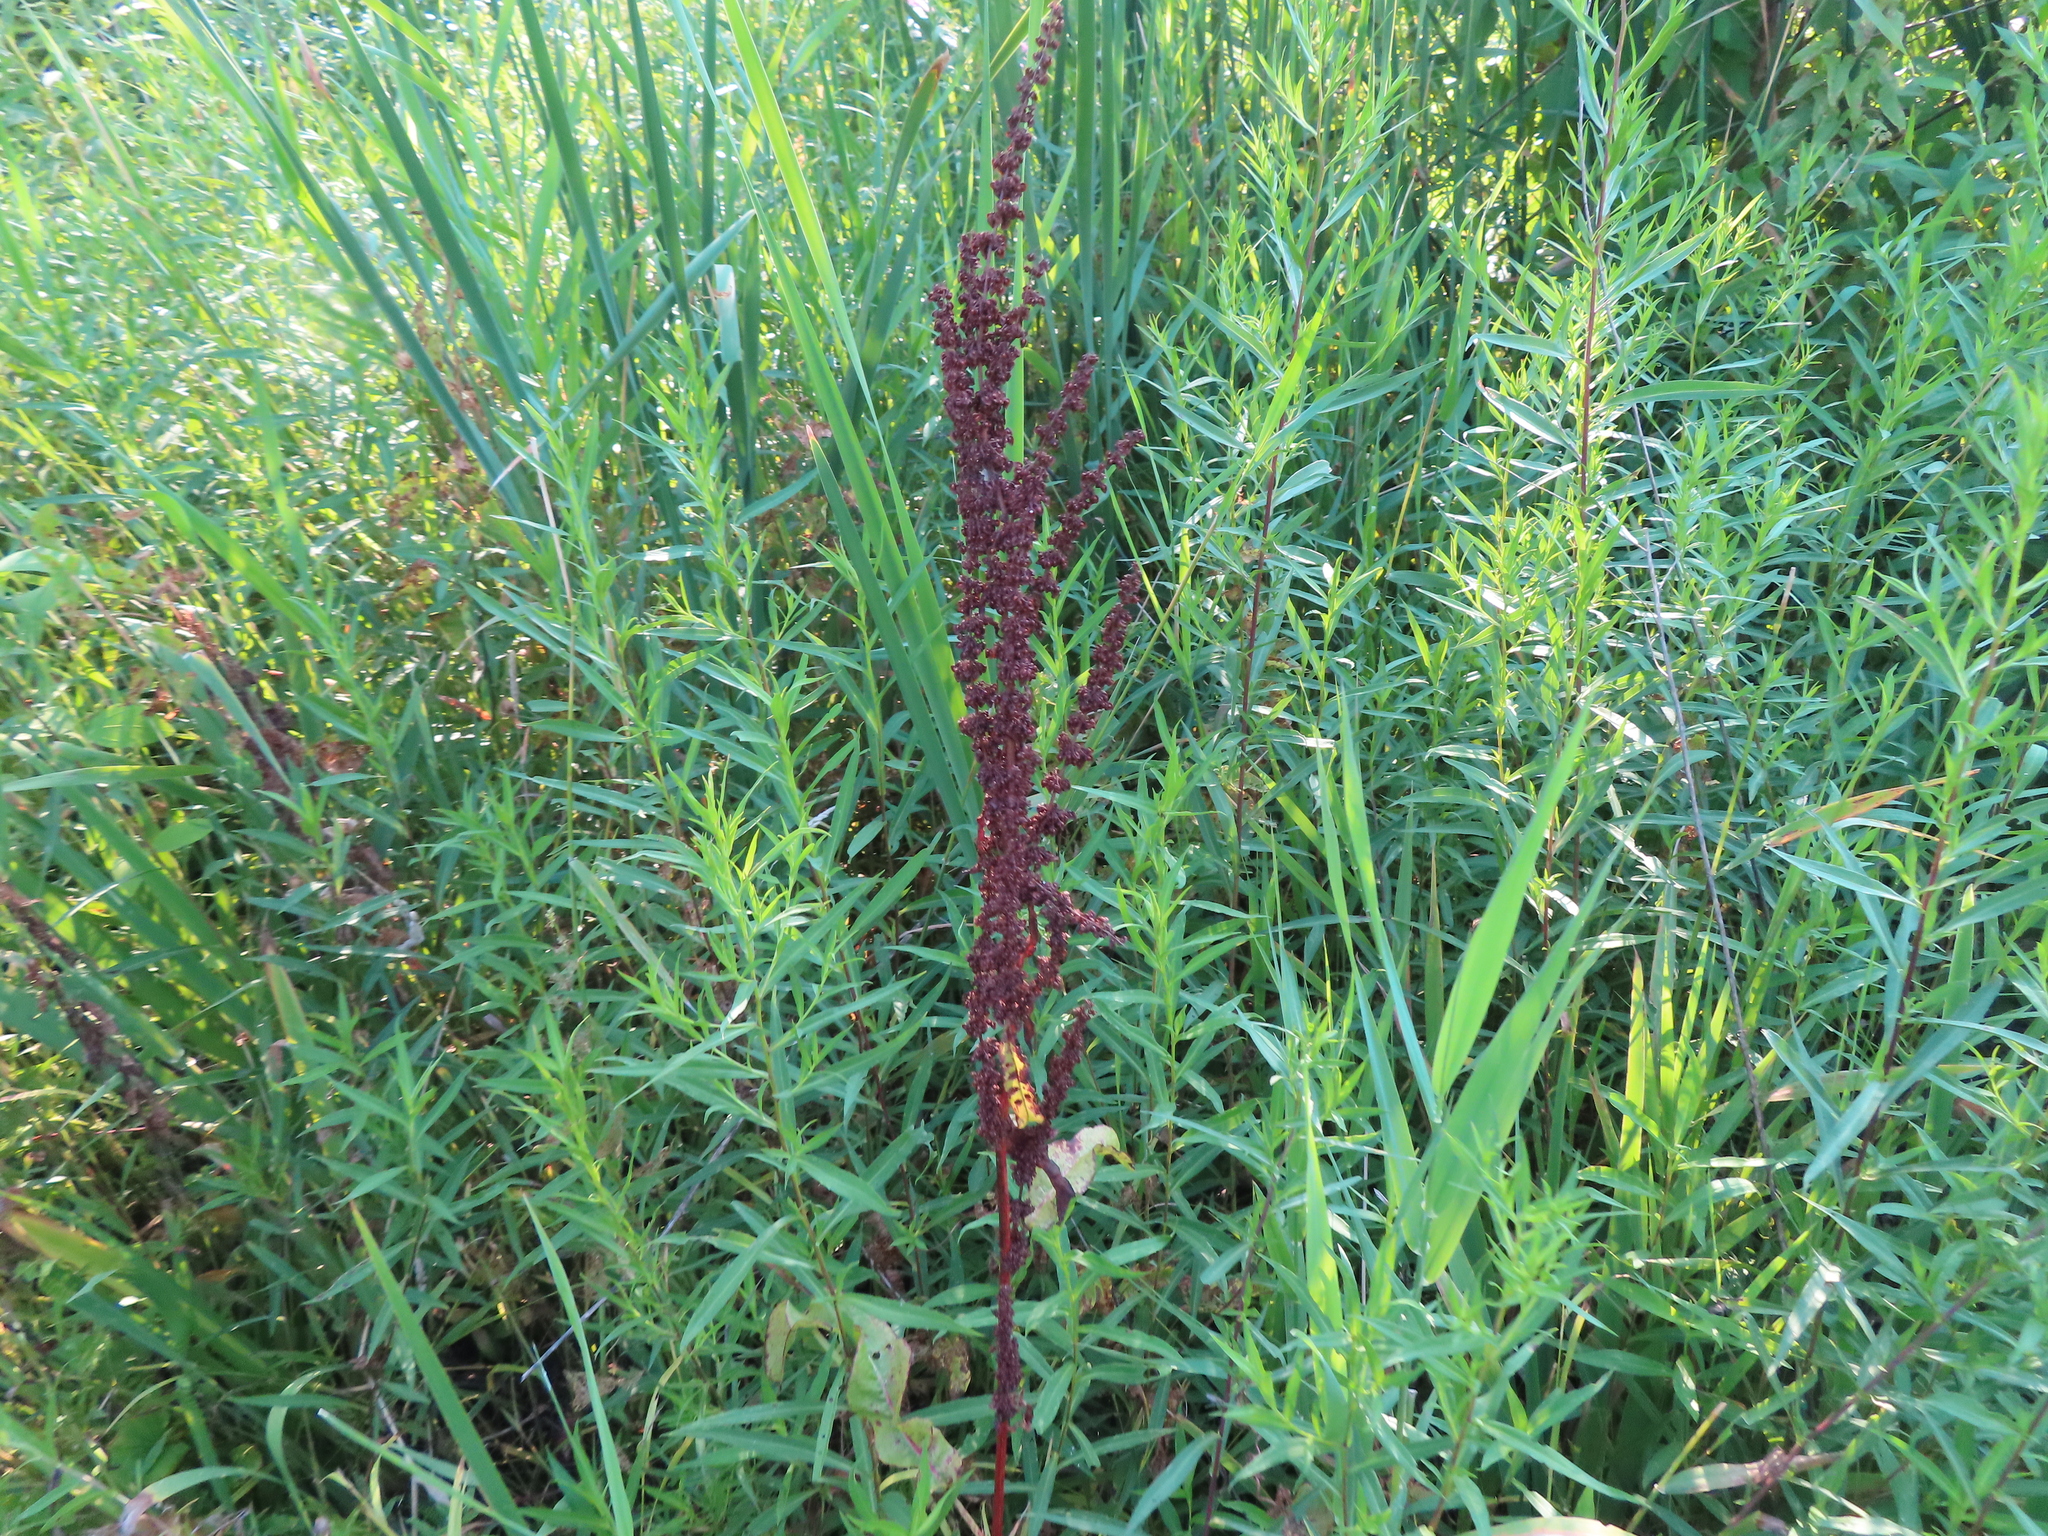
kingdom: Plantae
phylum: Tracheophyta
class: Magnoliopsida
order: Caryophyllales
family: Polygonaceae
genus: Rumex
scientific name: Rumex crispus
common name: Curled dock
